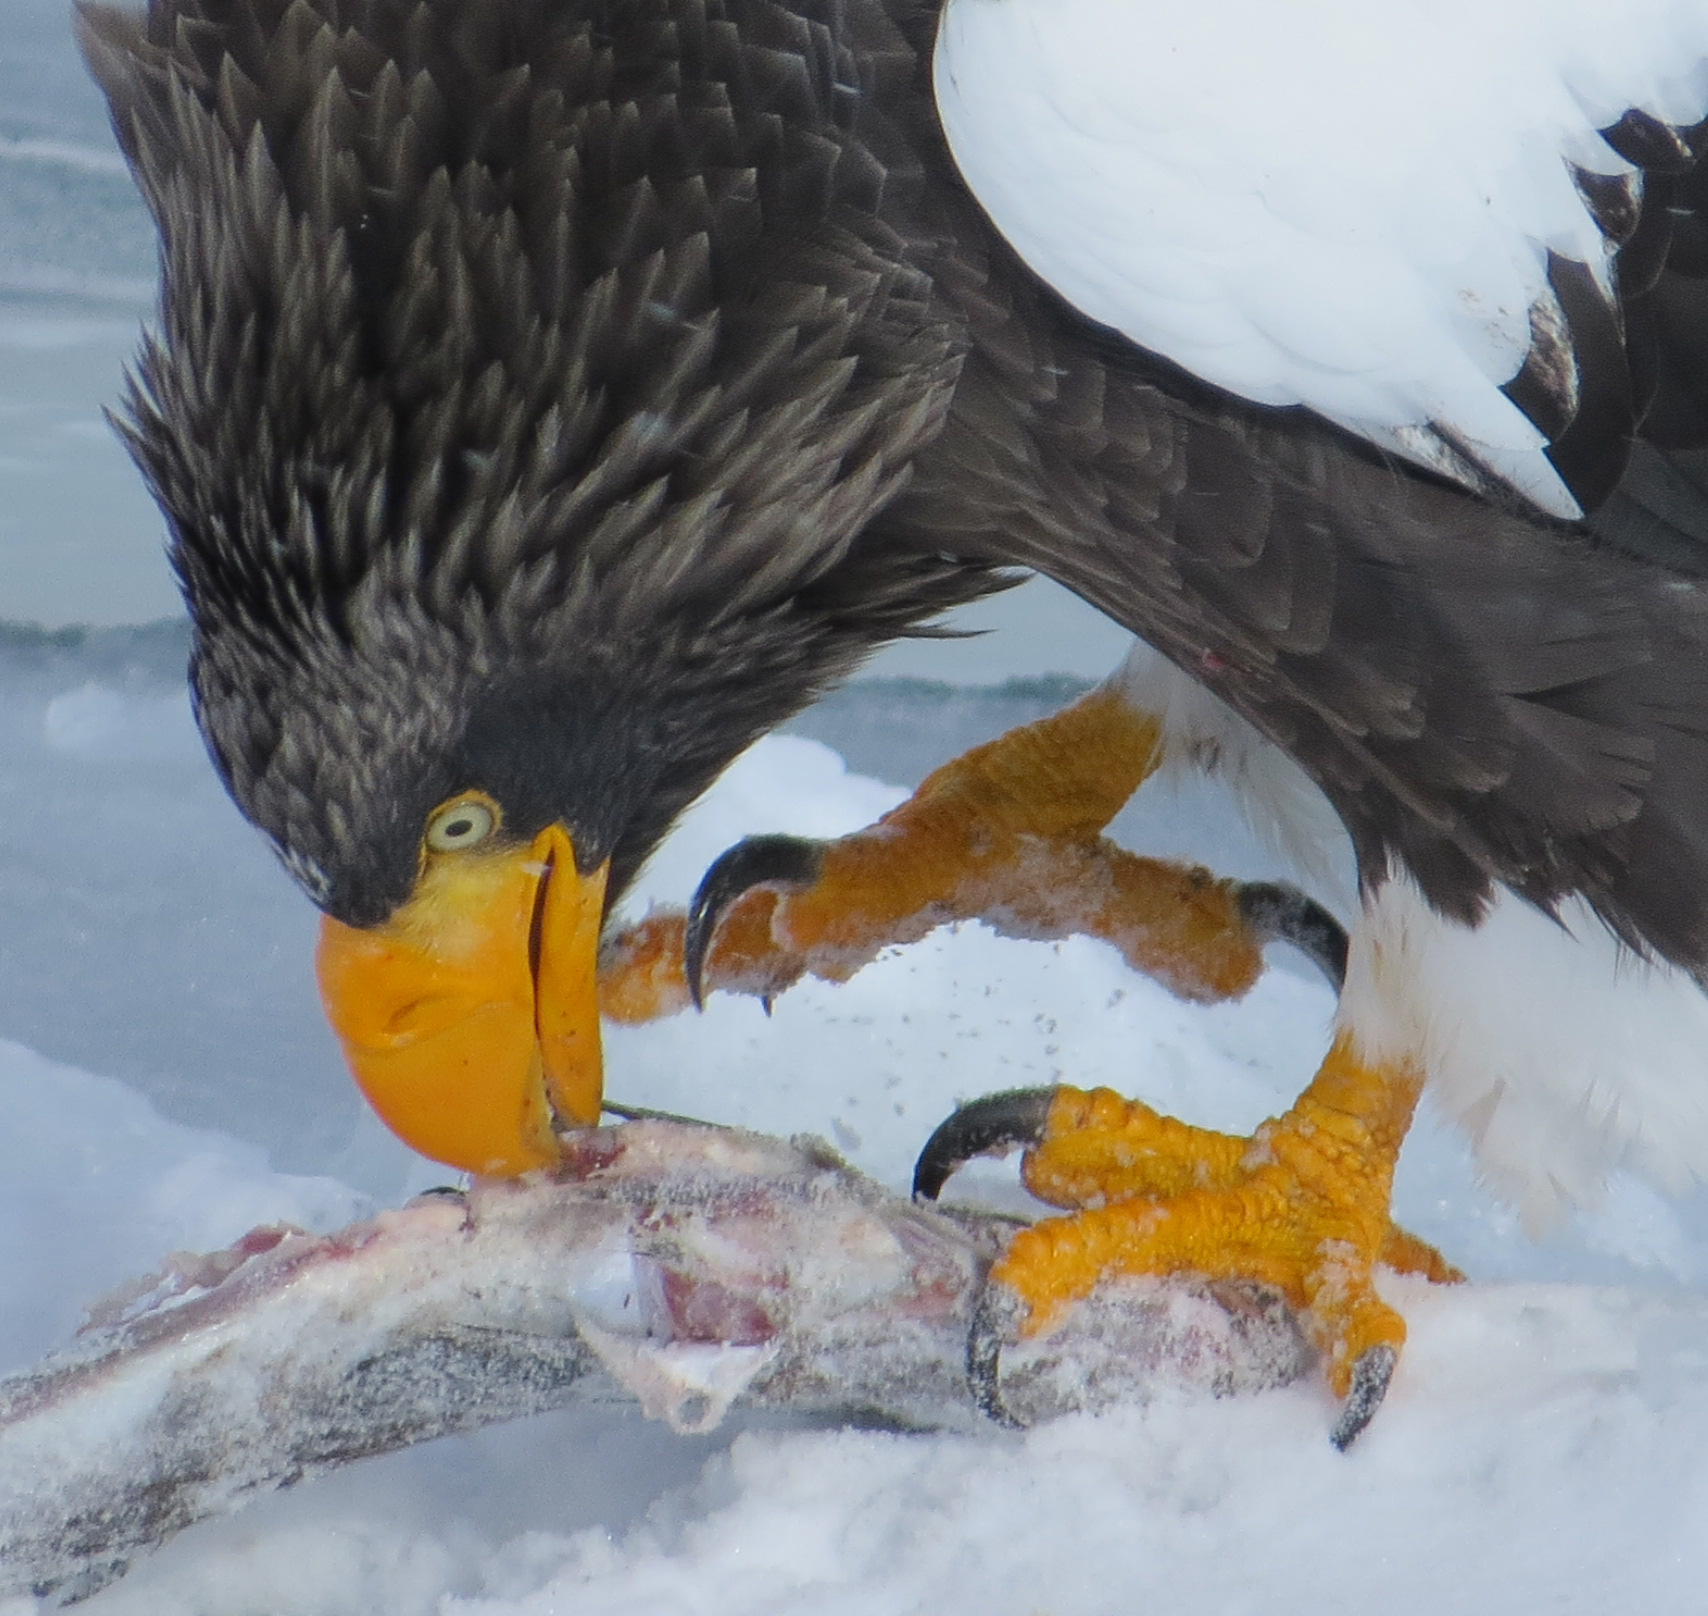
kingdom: Animalia
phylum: Chordata
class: Aves
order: Accipitriformes
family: Accipitridae
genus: Haliaeetus
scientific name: Haliaeetus pelagicus
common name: Steller's sea eagle
